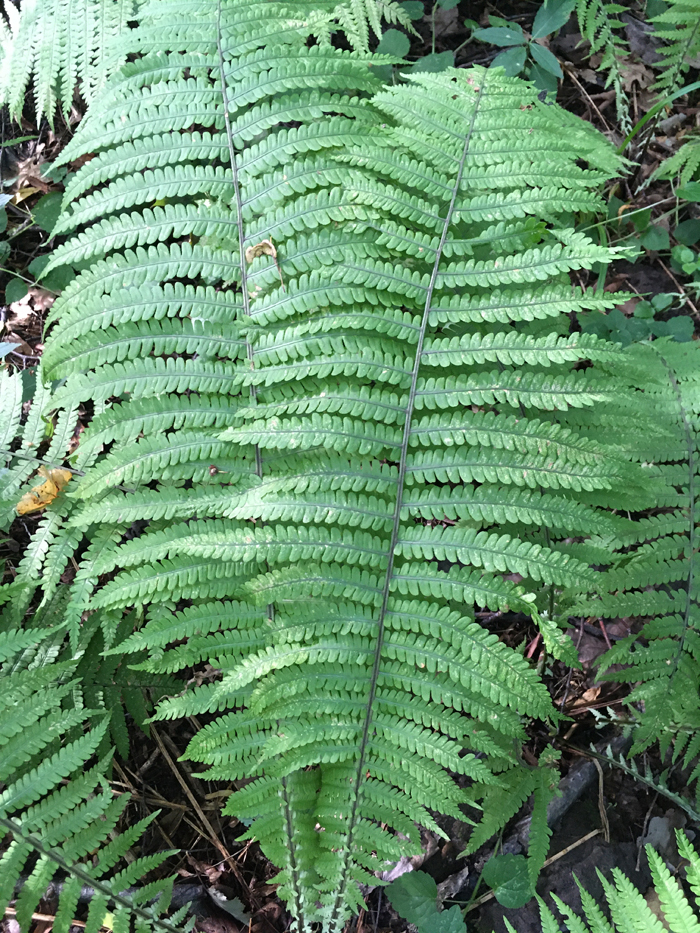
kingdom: Plantae
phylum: Tracheophyta
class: Polypodiopsida
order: Polypodiales
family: Dryopteridaceae
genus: Dryopteris
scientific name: Dryopteris filix-mas
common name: Male fern
